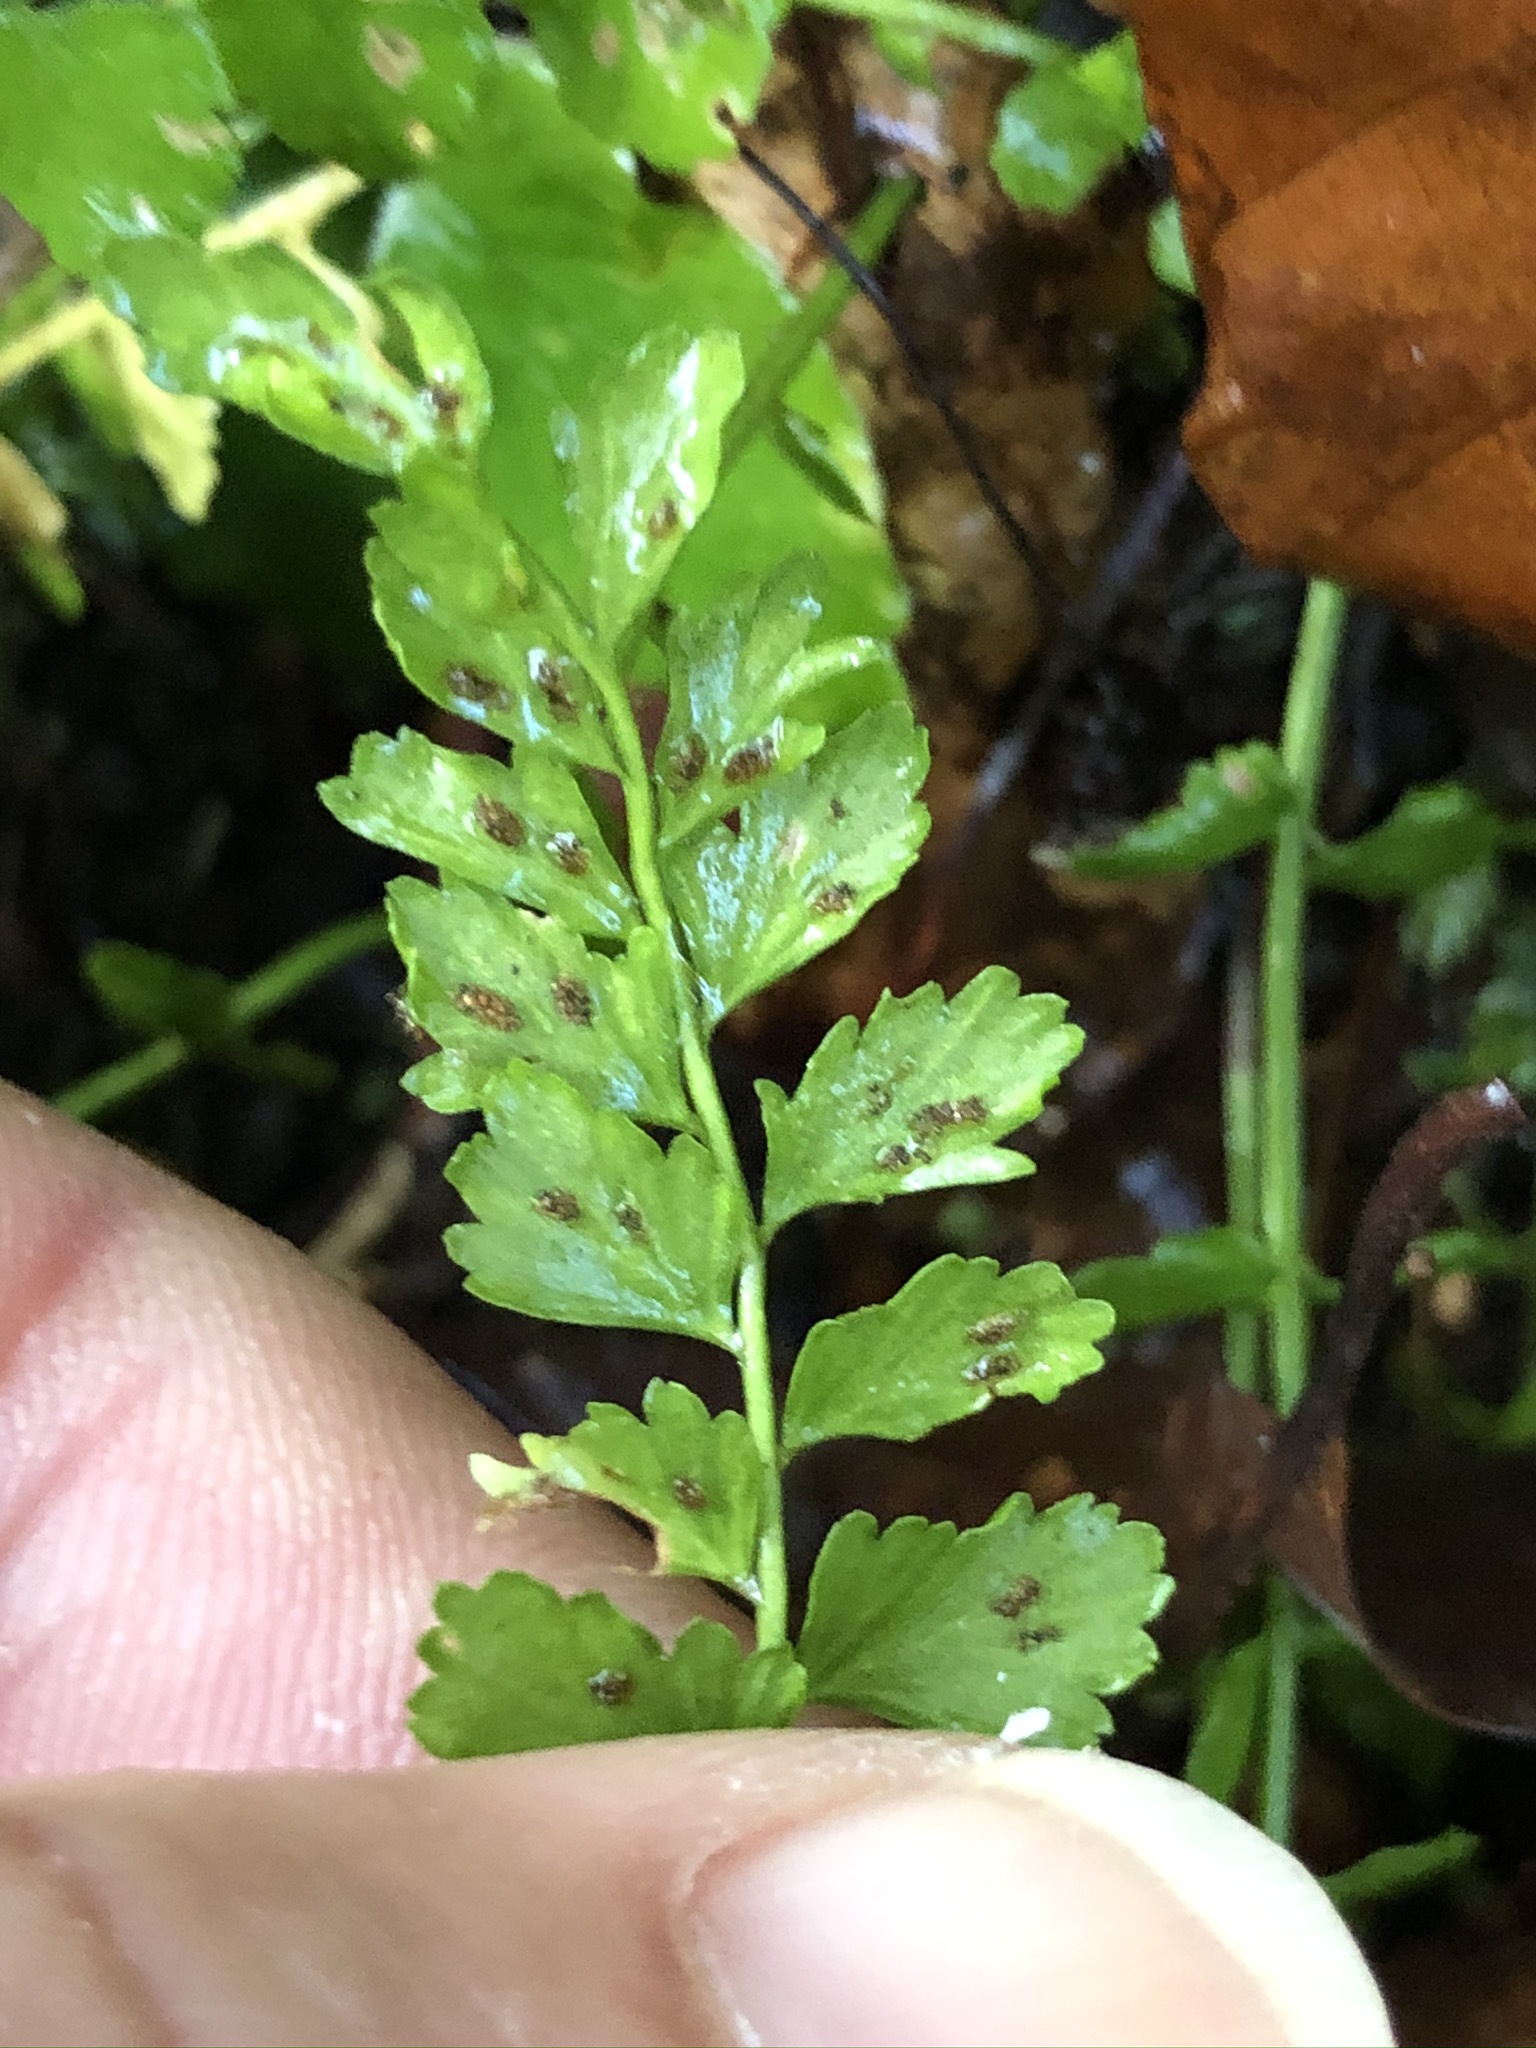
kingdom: Plantae
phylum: Tracheophyta
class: Polypodiopsida
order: Polypodiales
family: Aspleniaceae
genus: Asplenium
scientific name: Asplenium viride
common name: Green spleenwort
